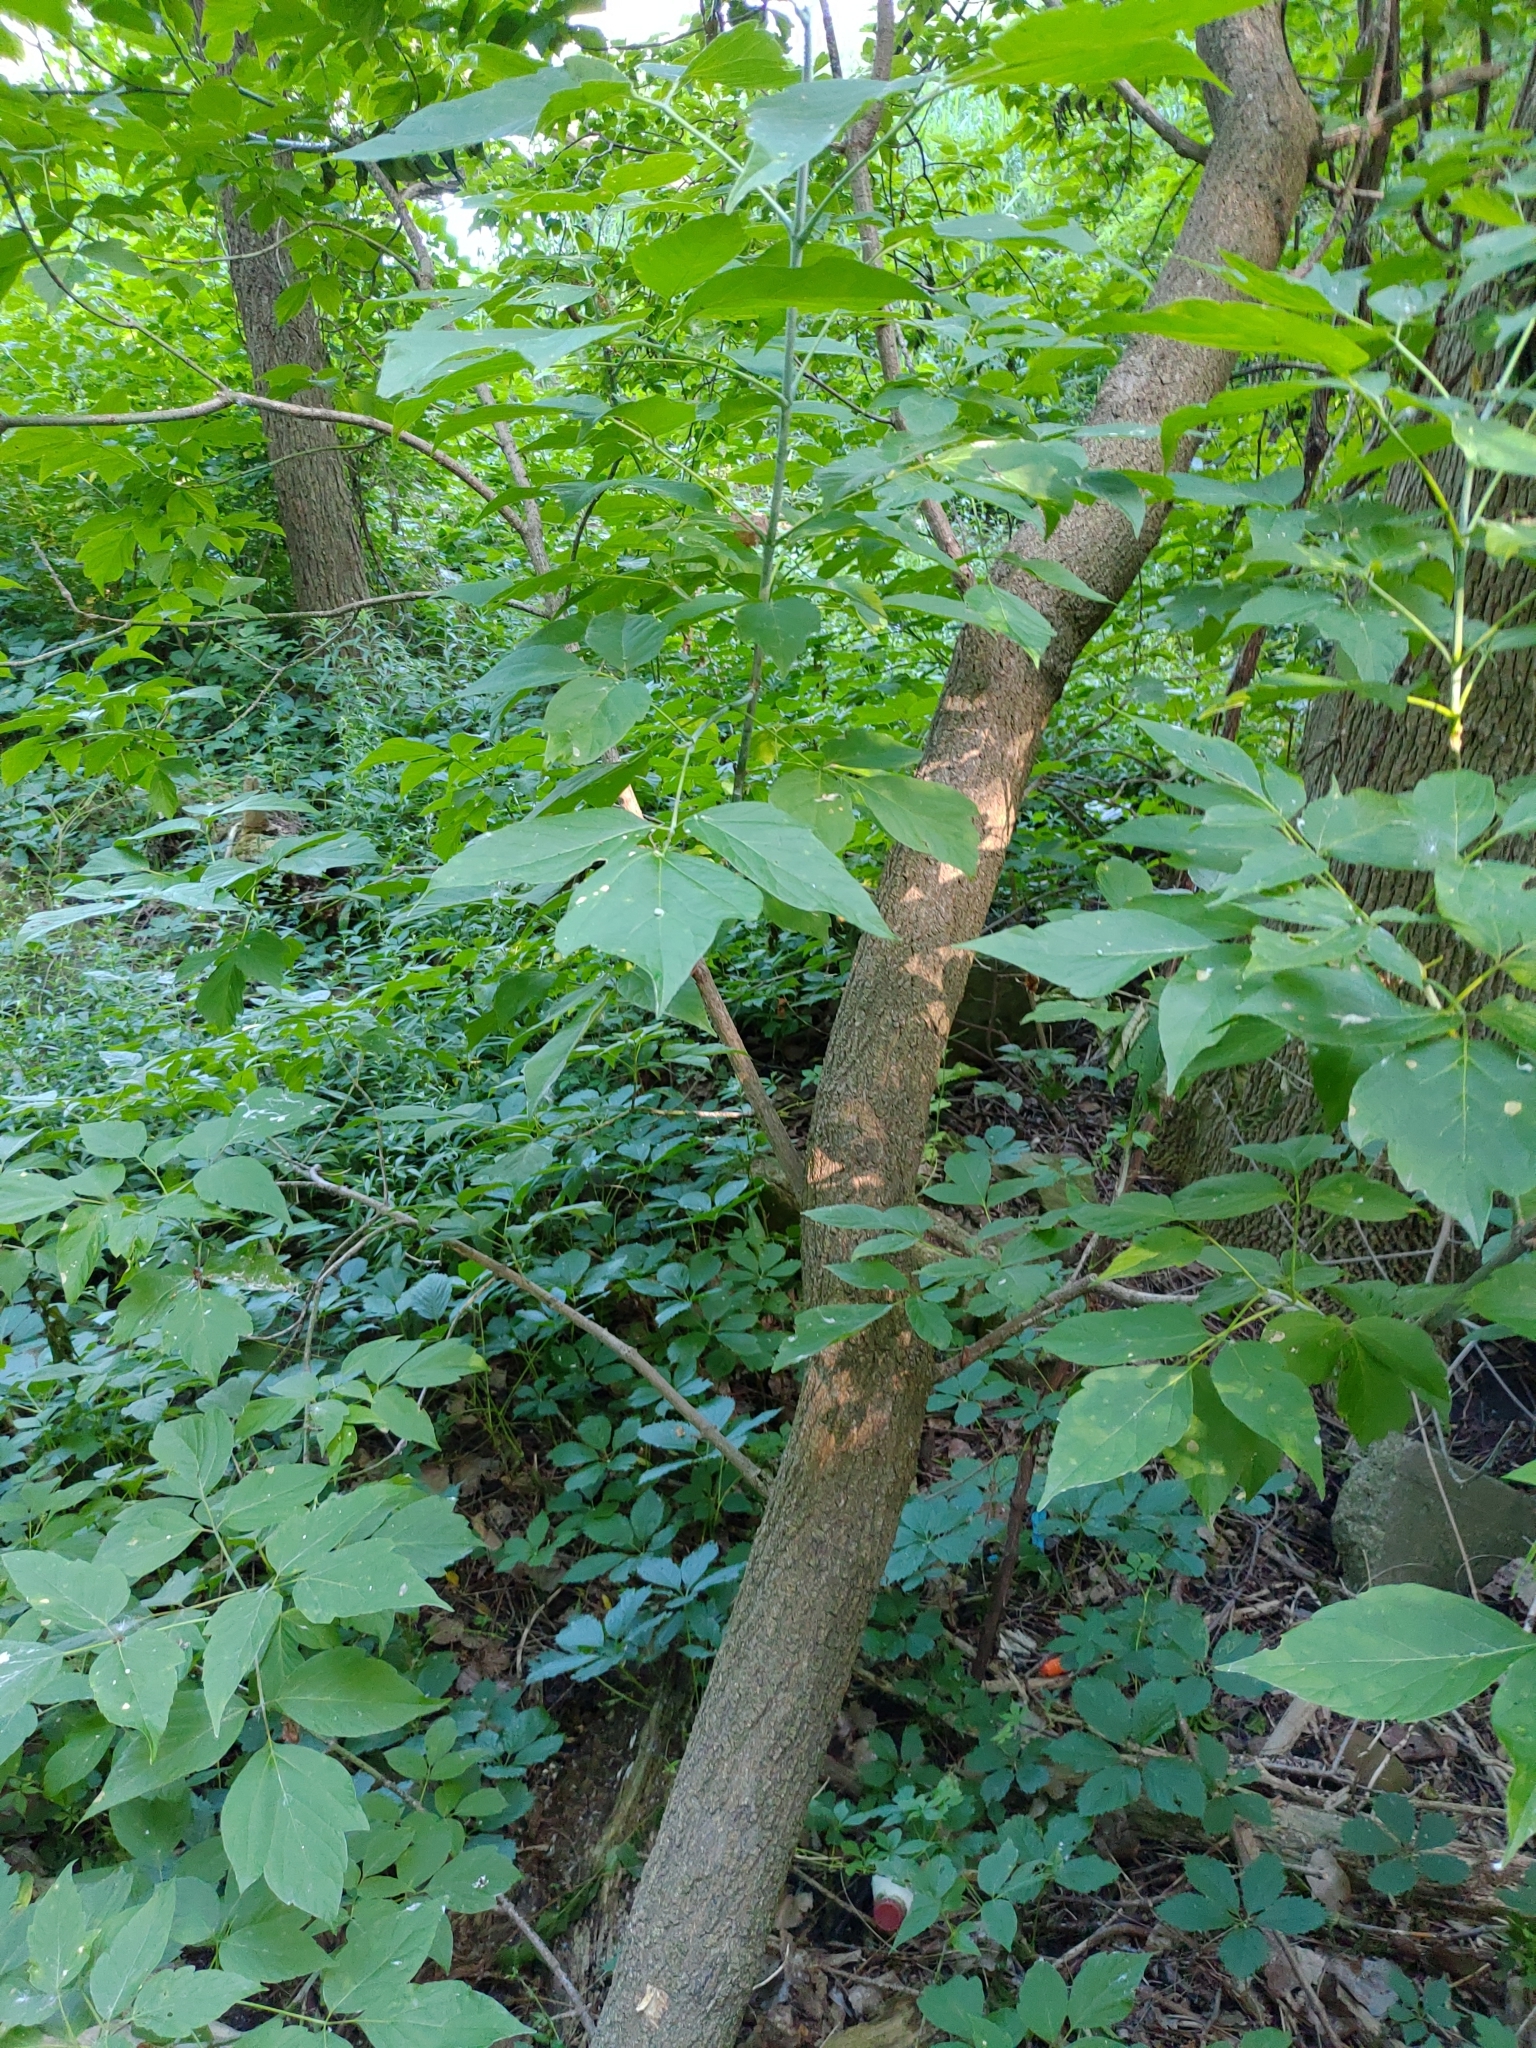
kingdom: Plantae
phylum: Tracheophyta
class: Magnoliopsida
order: Sapindales
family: Sapindaceae
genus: Acer
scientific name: Acer negundo
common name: Ashleaf maple
